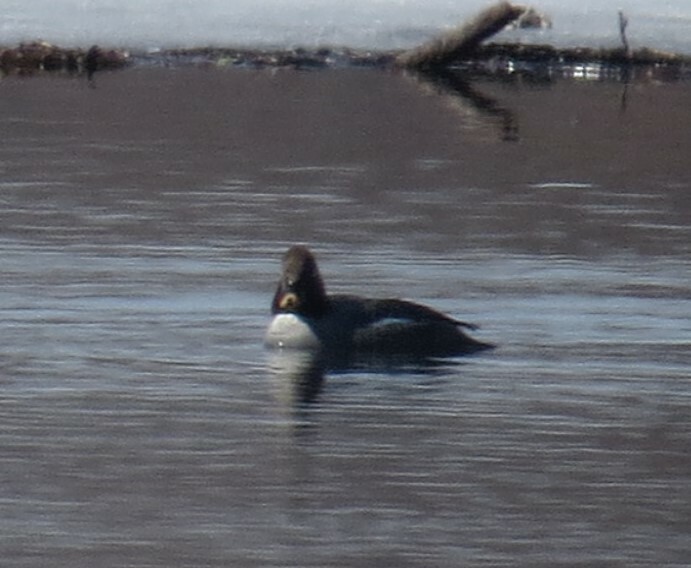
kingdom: Animalia
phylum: Chordata
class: Aves
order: Anseriformes
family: Anatidae
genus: Bucephala
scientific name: Bucephala clangula
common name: Common goldeneye
